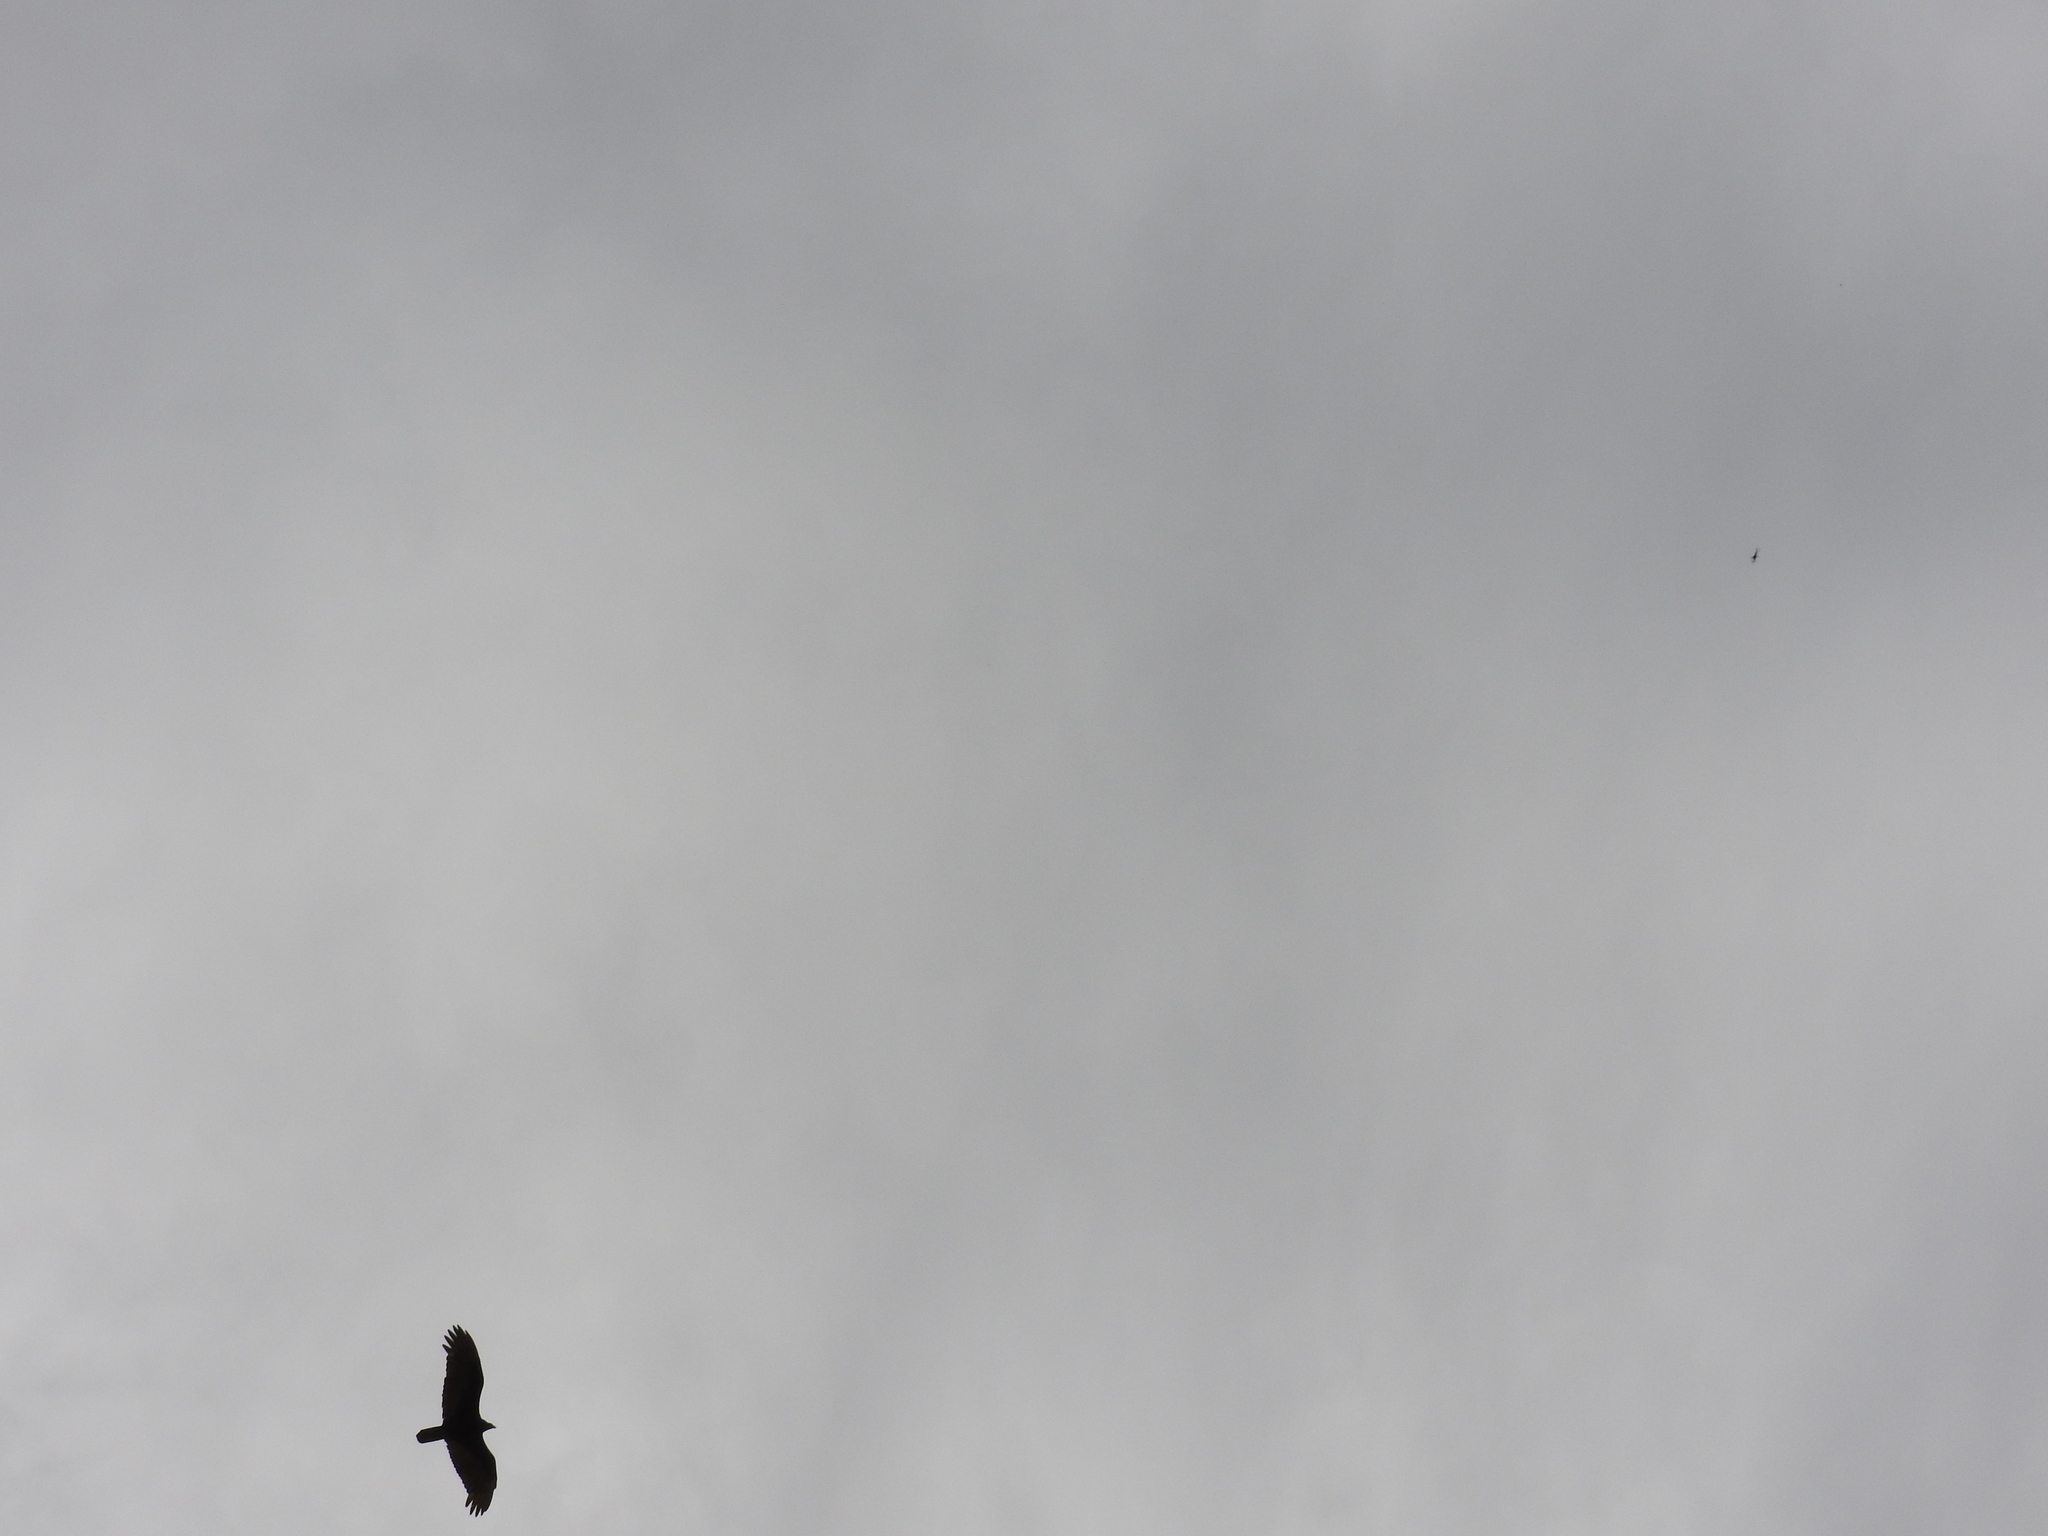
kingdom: Animalia
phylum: Chordata
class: Aves
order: Accipitriformes
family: Cathartidae
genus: Cathartes
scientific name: Cathartes aura
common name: Turkey vulture
